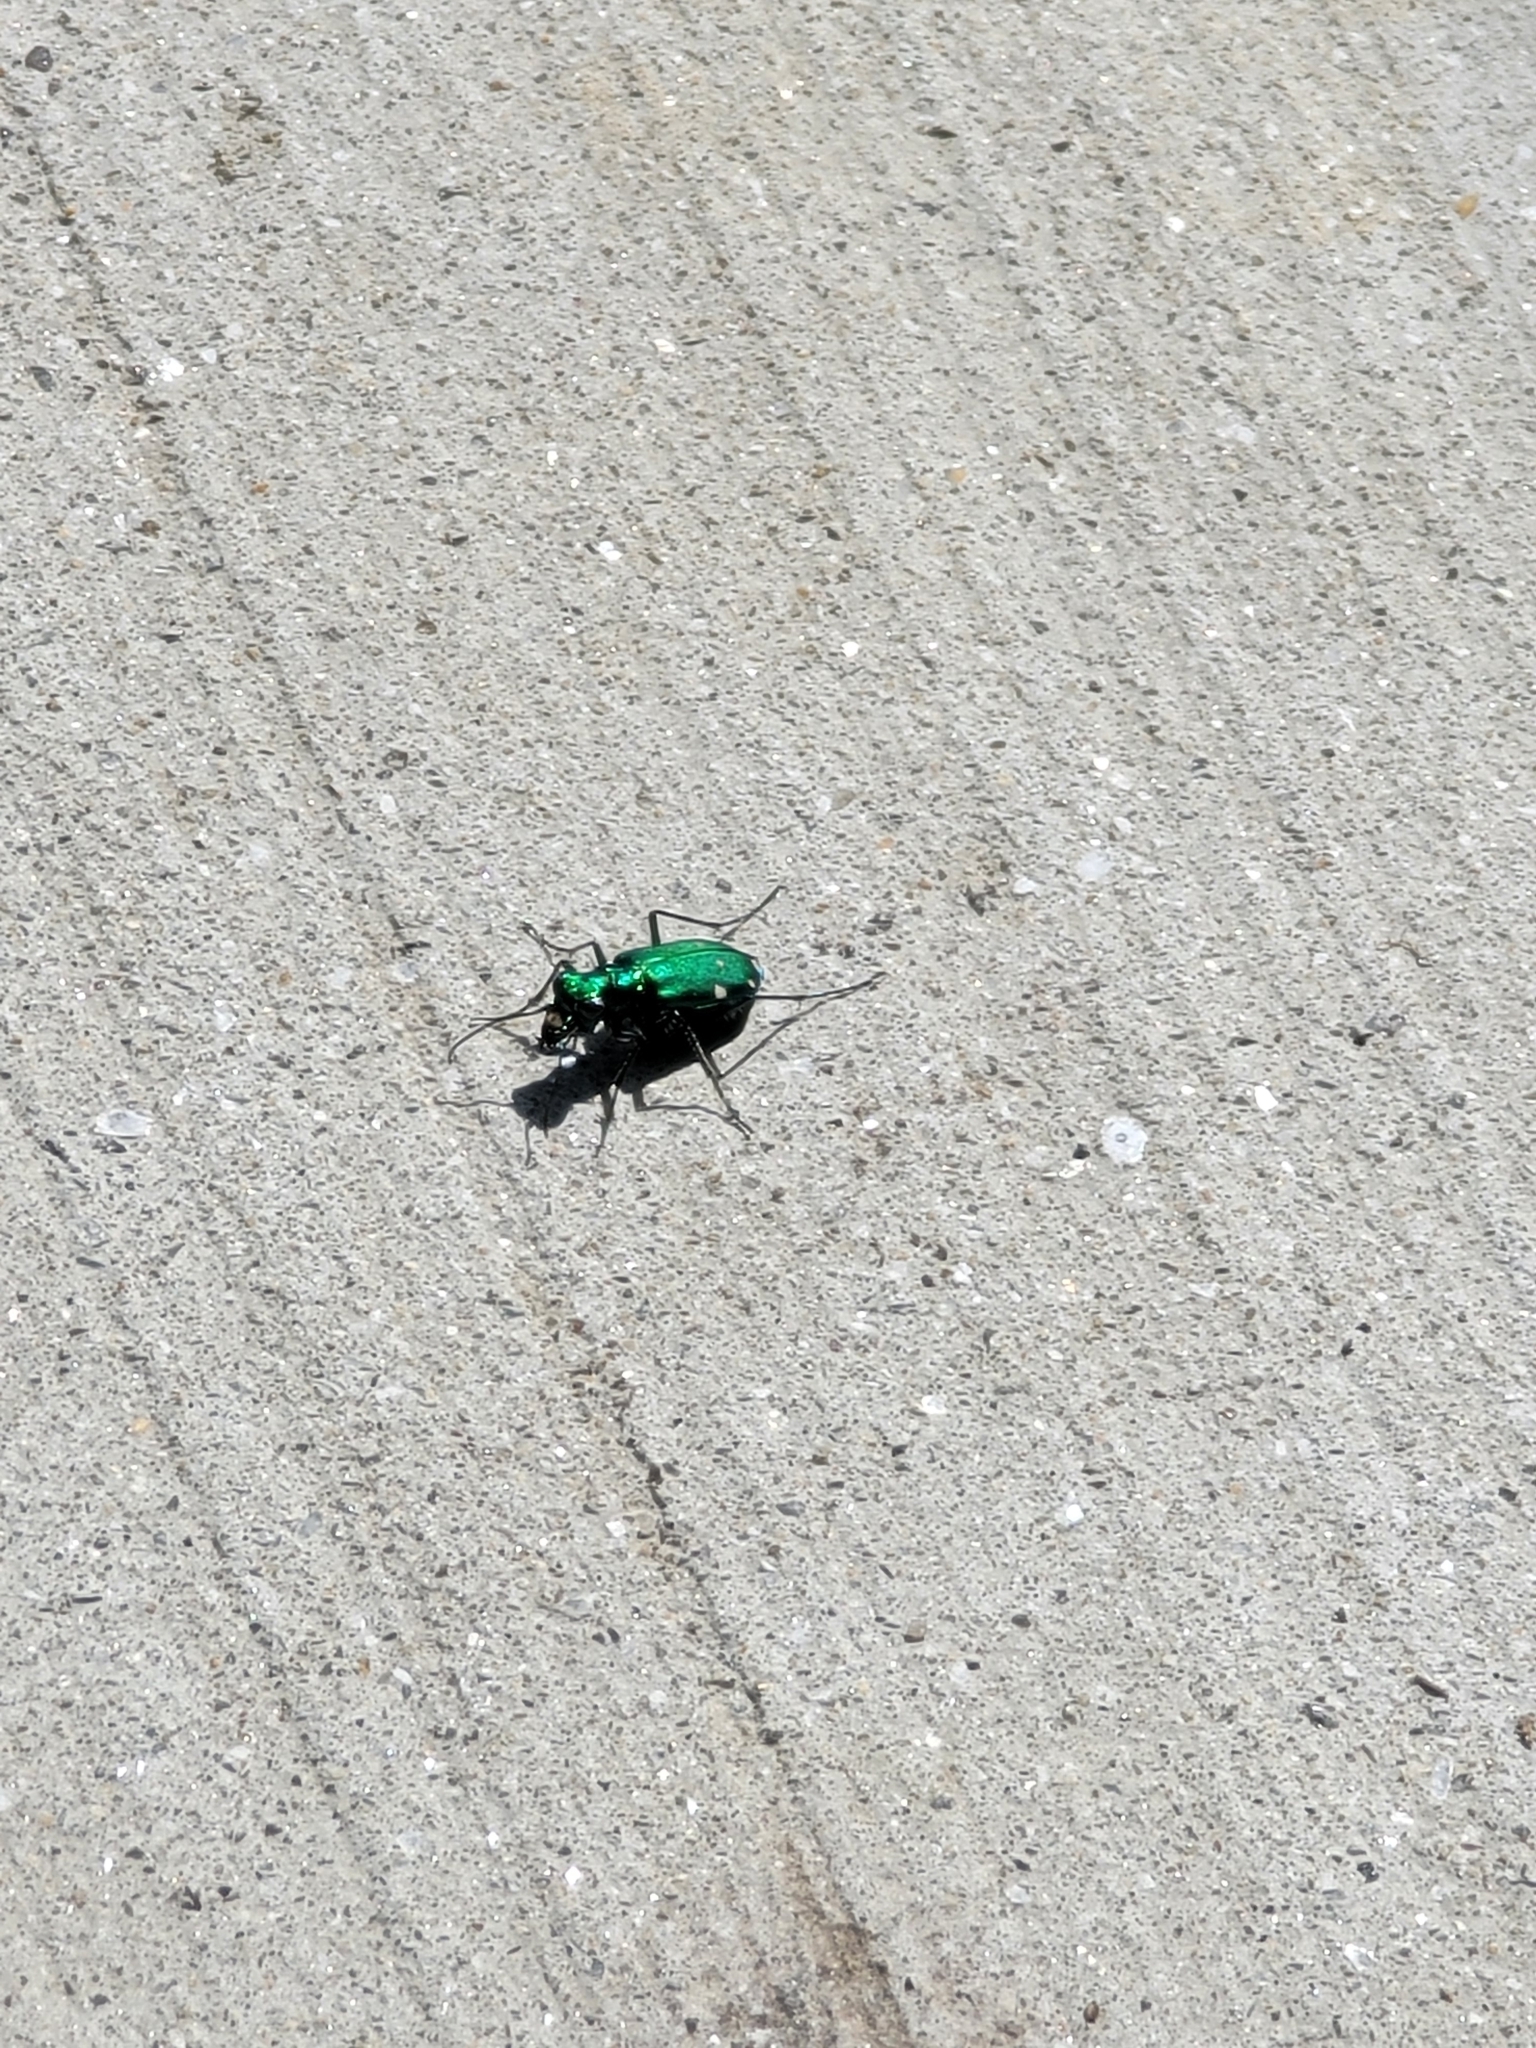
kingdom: Animalia
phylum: Arthropoda
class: Insecta
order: Coleoptera
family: Carabidae
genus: Cicindela
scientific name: Cicindela sexguttata
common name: Six-spotted tiger beetle
